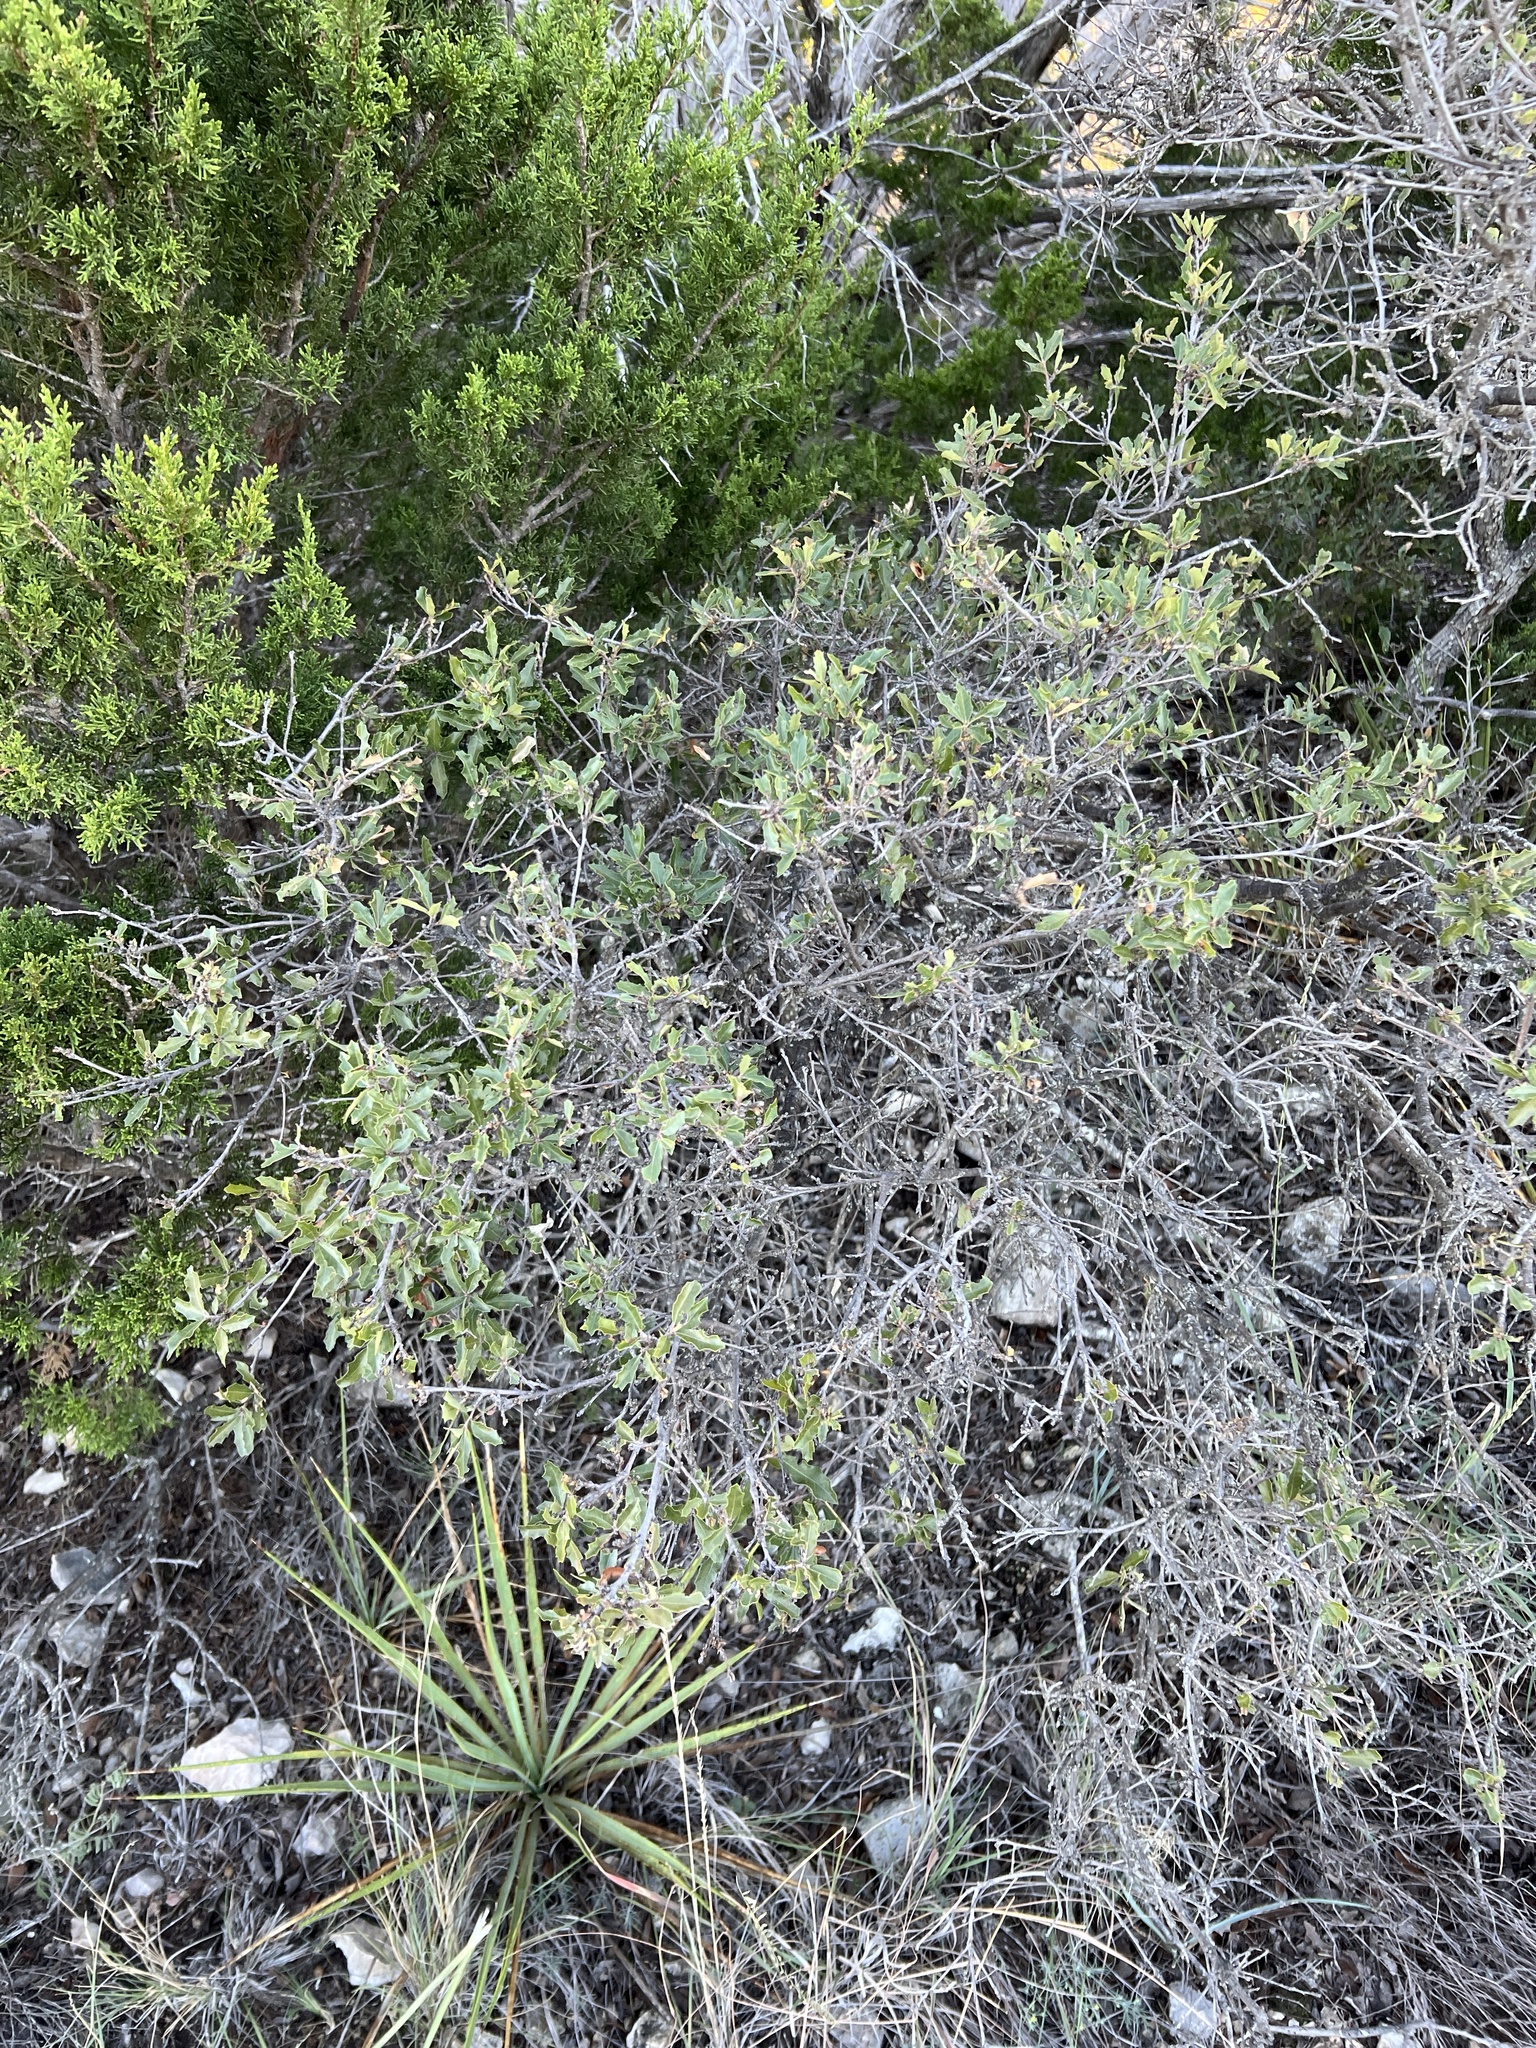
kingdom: Plantae
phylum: Tracheophyta
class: Magnoliopsida
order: Fagales
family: Fagaceae
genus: Quercus
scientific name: Quercus vaseyana
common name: Sandpaper oak
